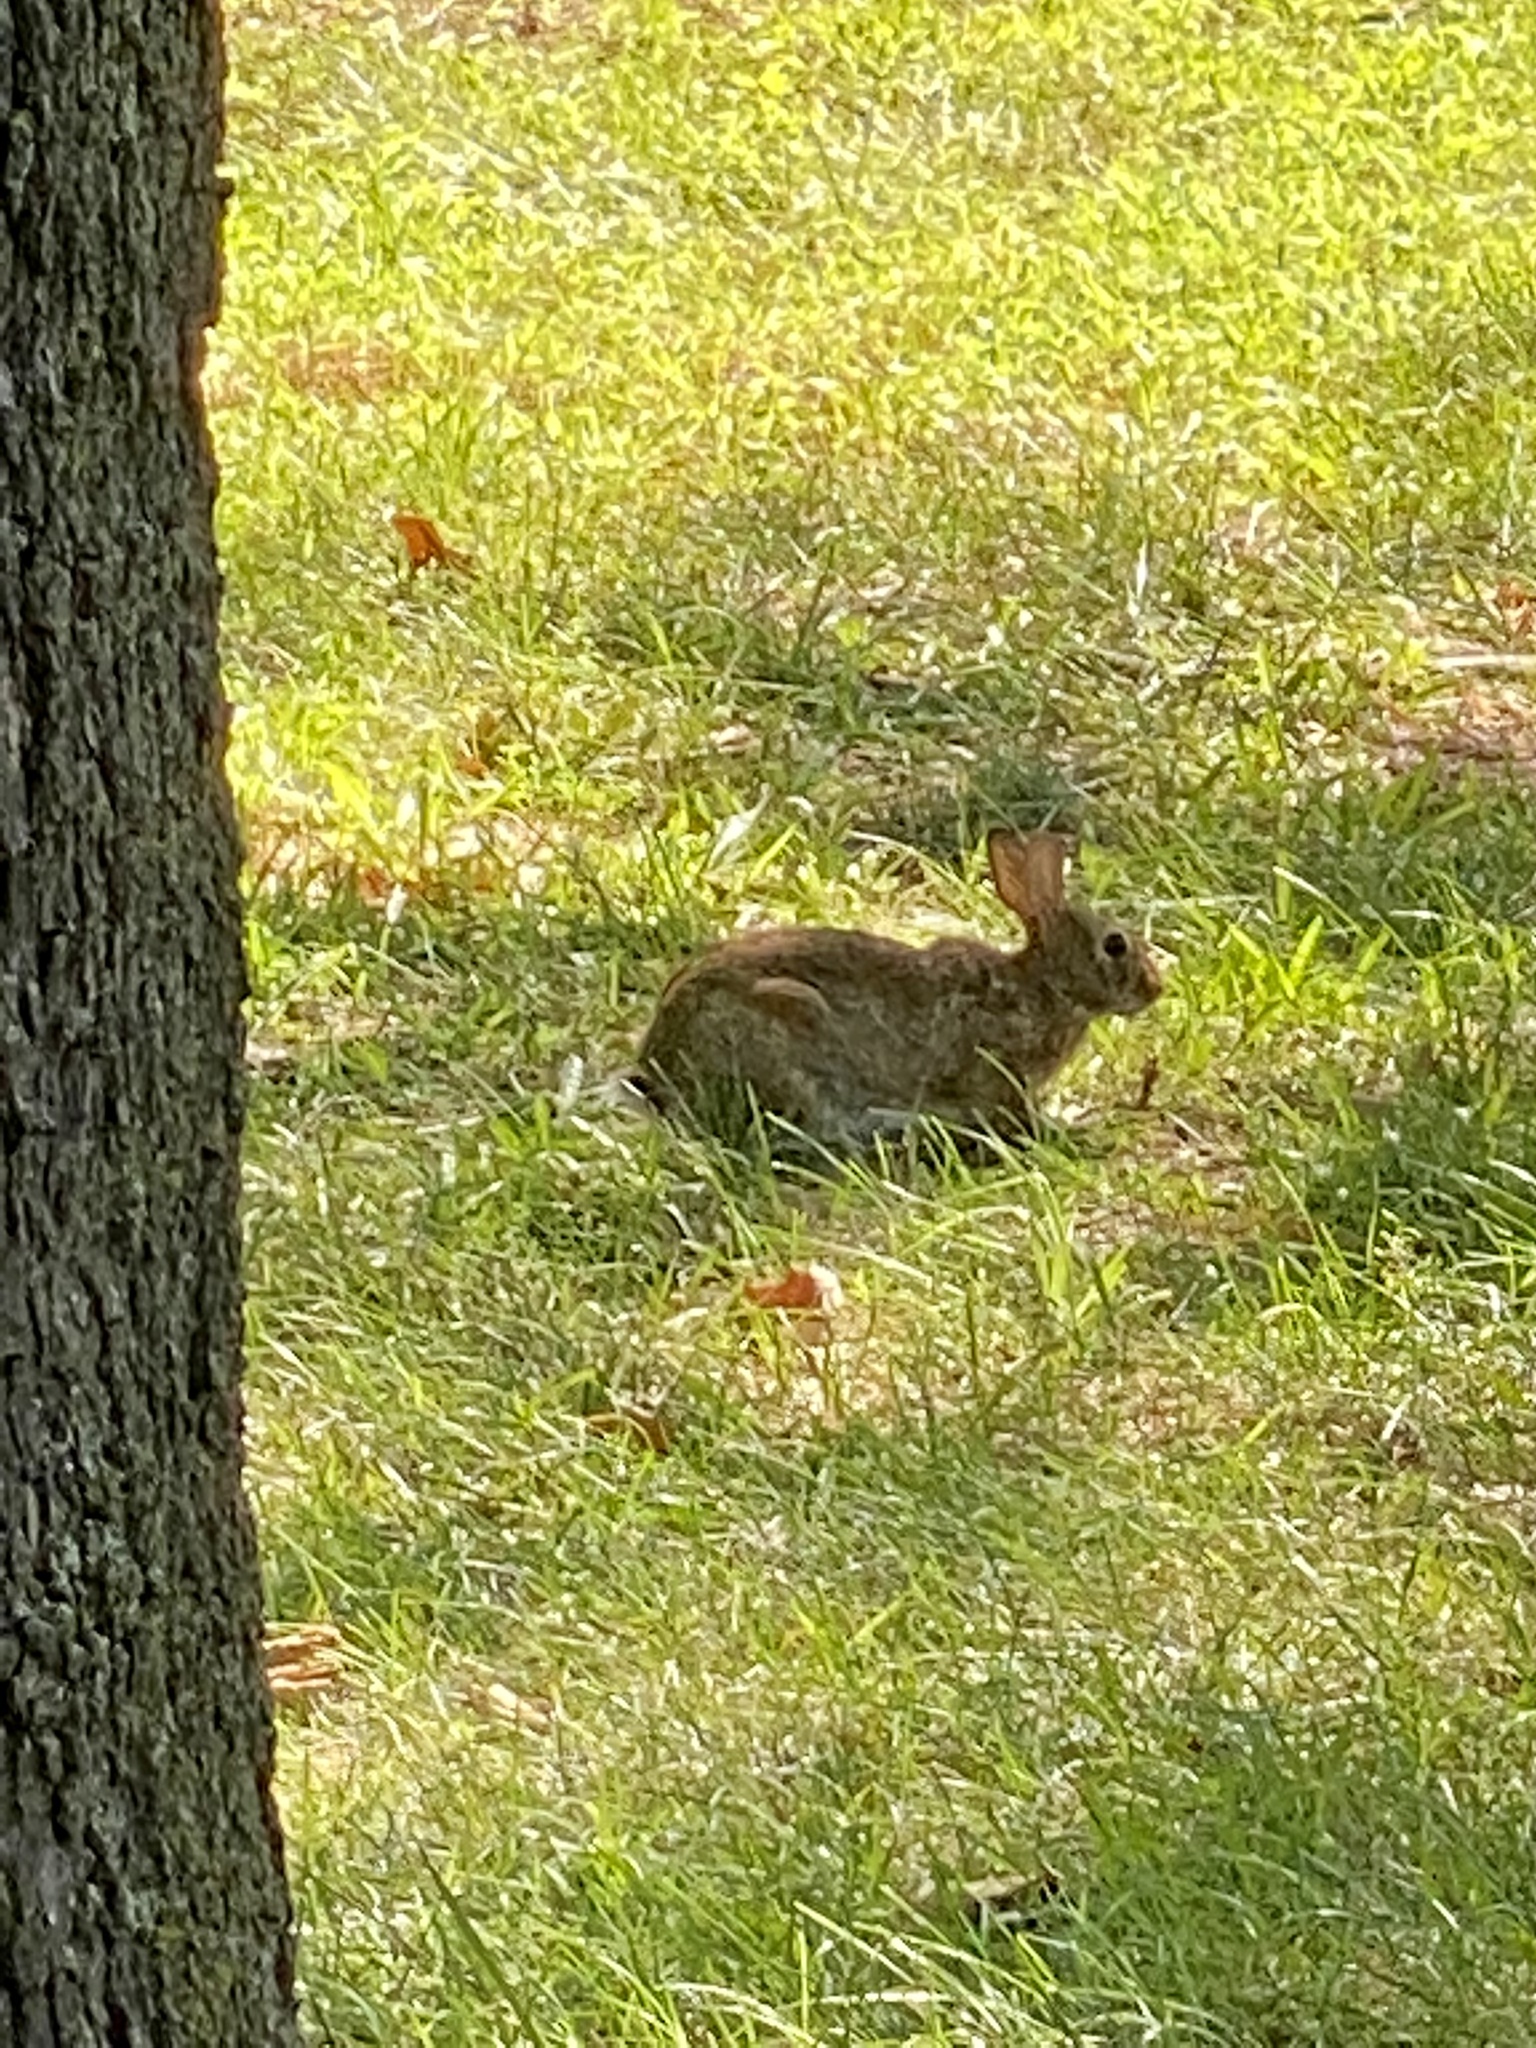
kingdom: Animalia
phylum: Chordata
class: Mammalia
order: Lagomorpha
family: Leporidae
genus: Sylvilagus
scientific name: Sylvilagus floridanus
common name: Eastern cottontail
